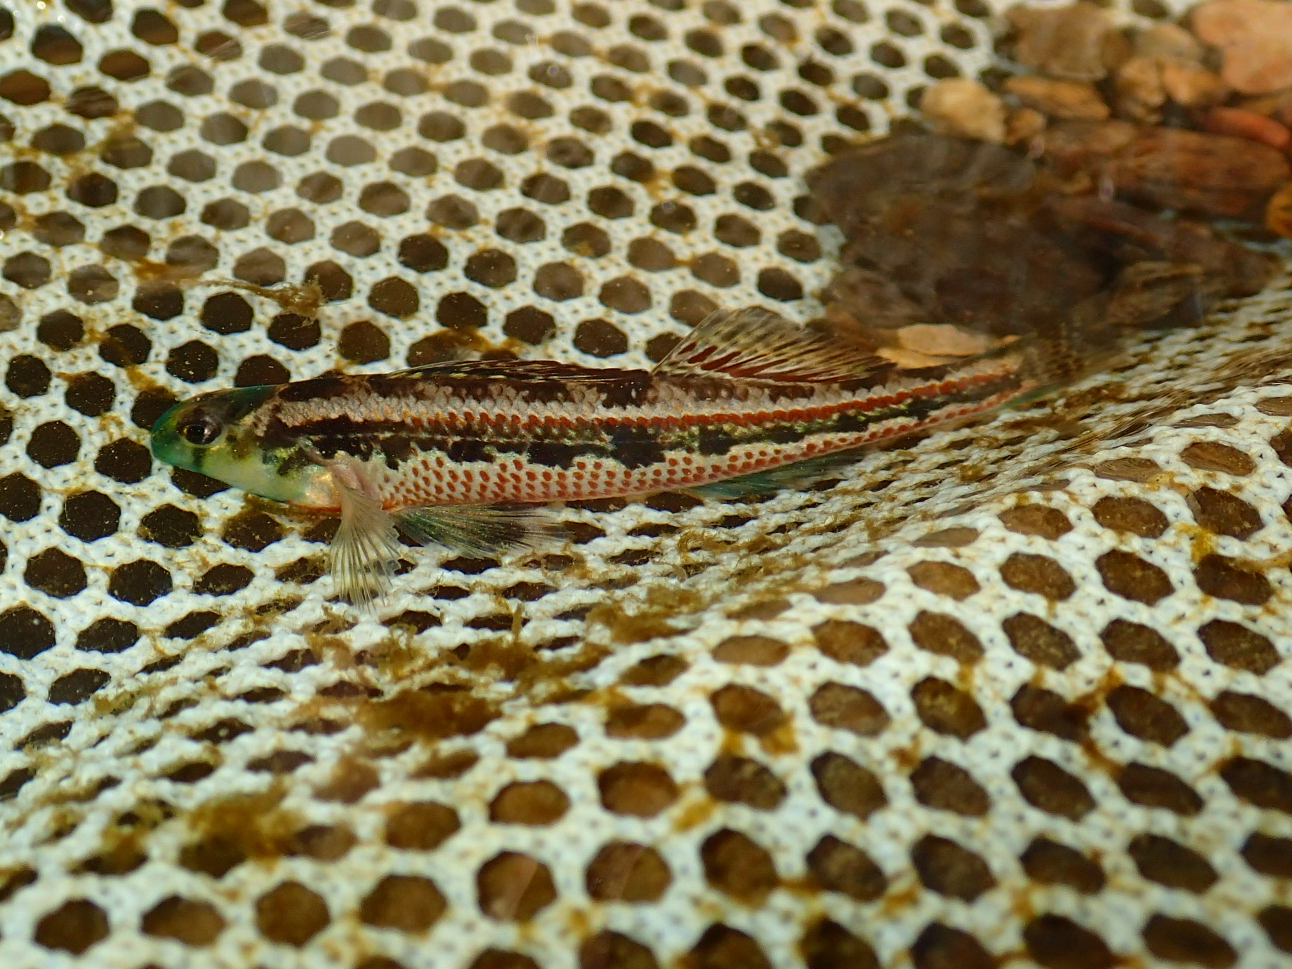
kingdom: Animalia
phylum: Chordata
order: Perciformes
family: Percidae
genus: Etheostoma
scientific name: Etheostoma barrenense
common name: Splendid darter
